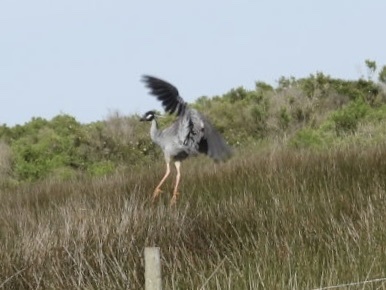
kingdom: Animalia
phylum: Chordata
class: Aves
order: Pelecaniformes
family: Ardeidae
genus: Nyctanassa
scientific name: Nyctanassa violacea
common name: Yellow-crowned night heron
